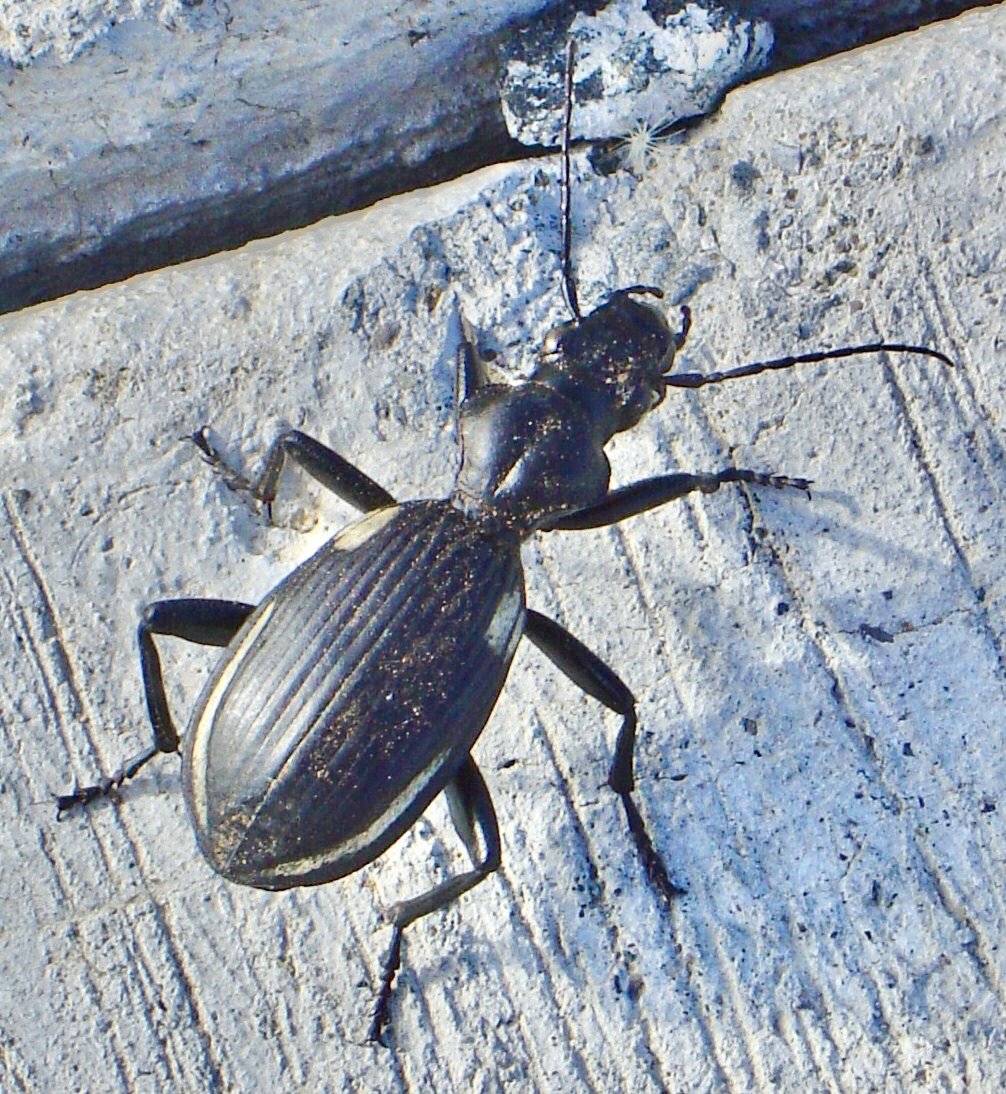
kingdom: Animalia
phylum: Arthropoda
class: Insecta
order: Coleoptera
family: Carabidae
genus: Anthia
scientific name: Anthia
